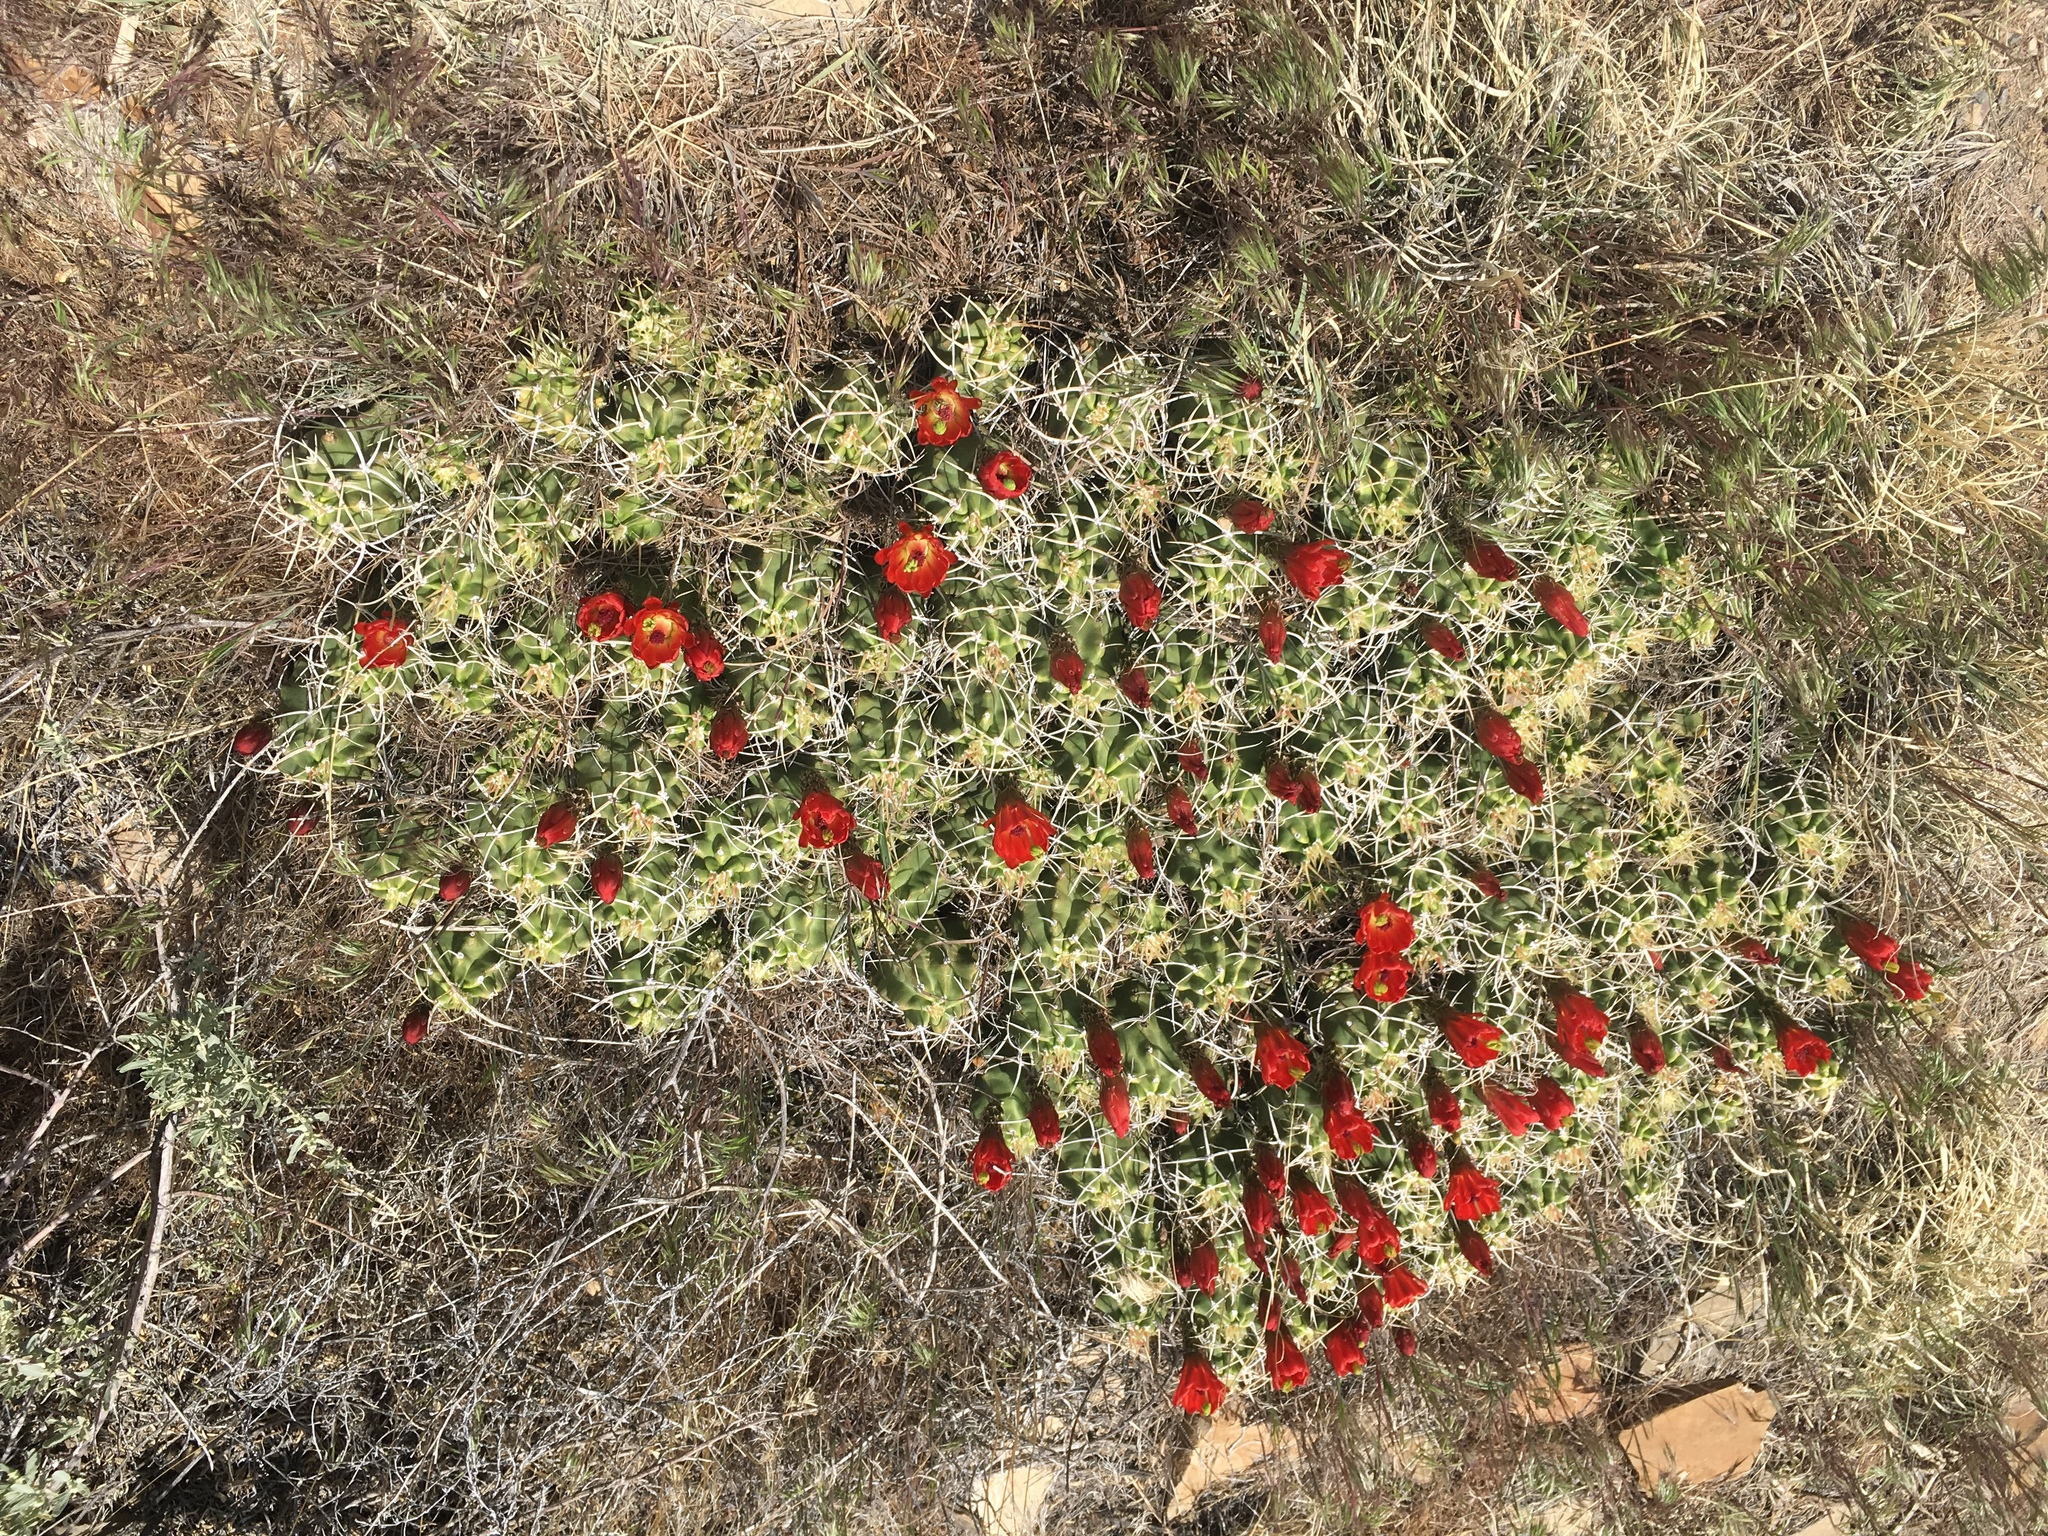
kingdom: Plantae
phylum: Tracheophyta
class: Magnoliopsida
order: Caryophyllales
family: Cactaceae
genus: Echinocereus
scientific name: Echinocereus triglochidiatus
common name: Claretcup hedgehog
